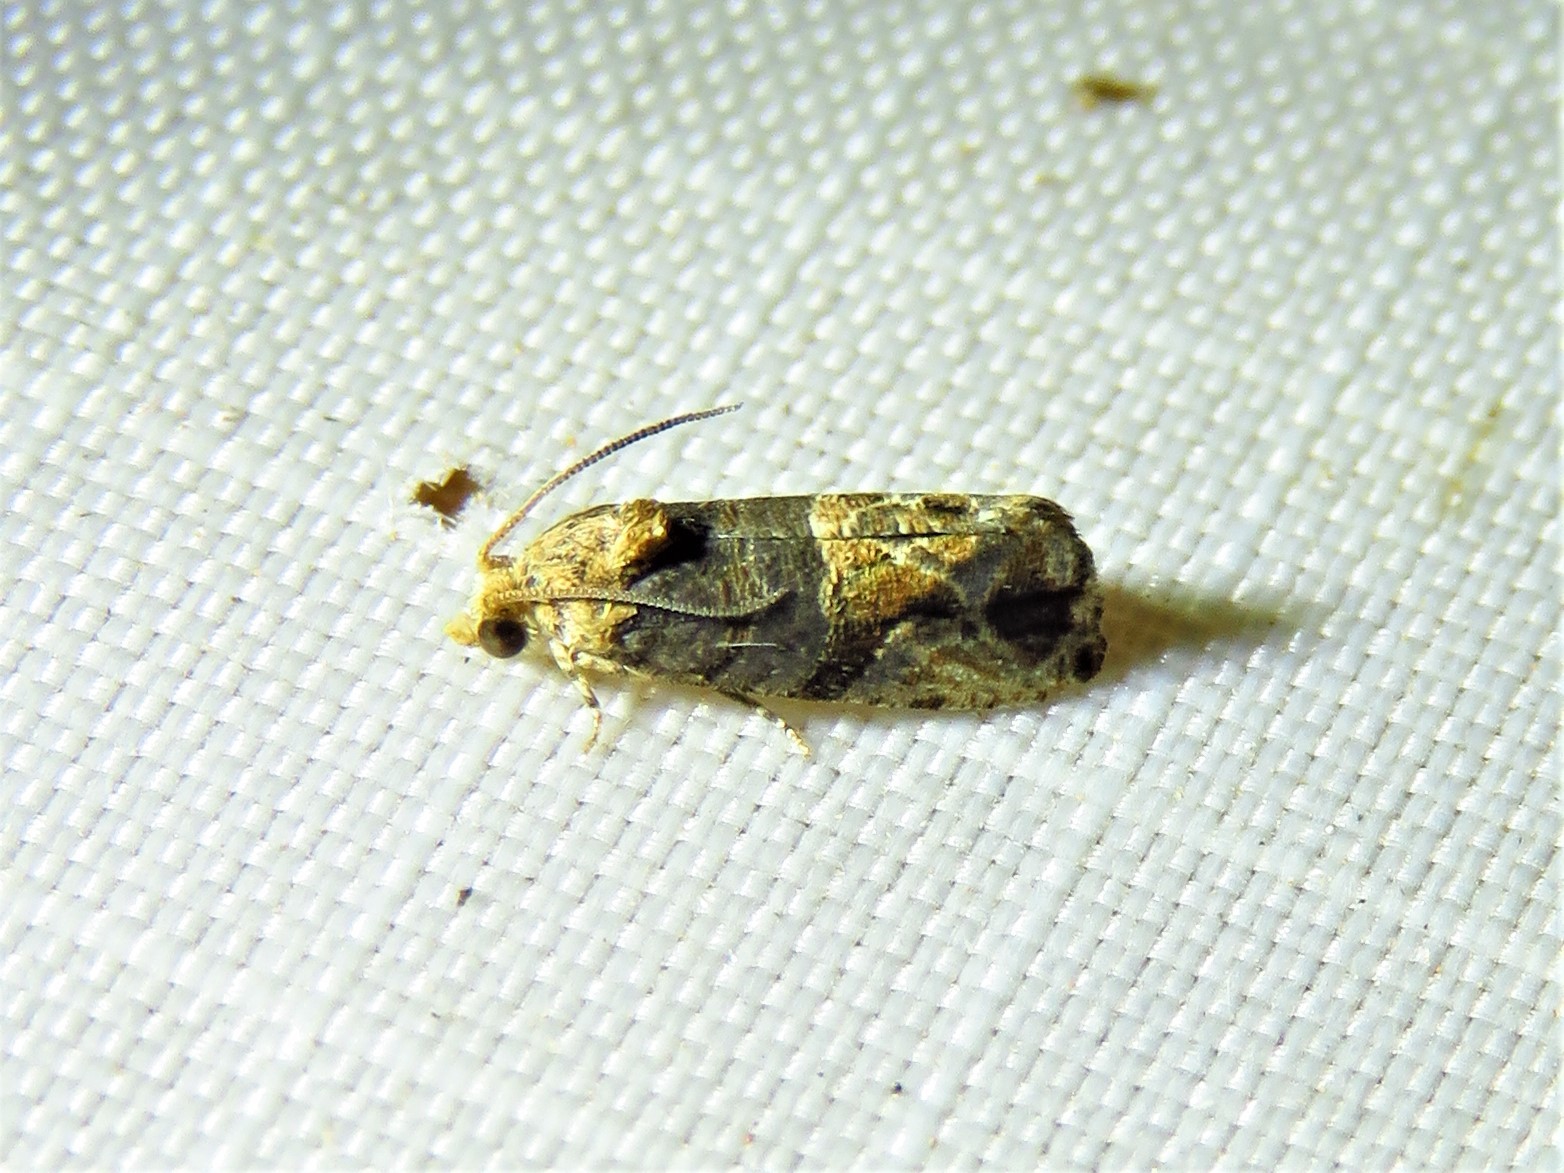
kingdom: Animalia
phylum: Arthropoda
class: Insecta
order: Lepidoptera
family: Tortricidae
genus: Paralobesia
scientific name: Paralobesia viteana
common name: Grape berry moth
